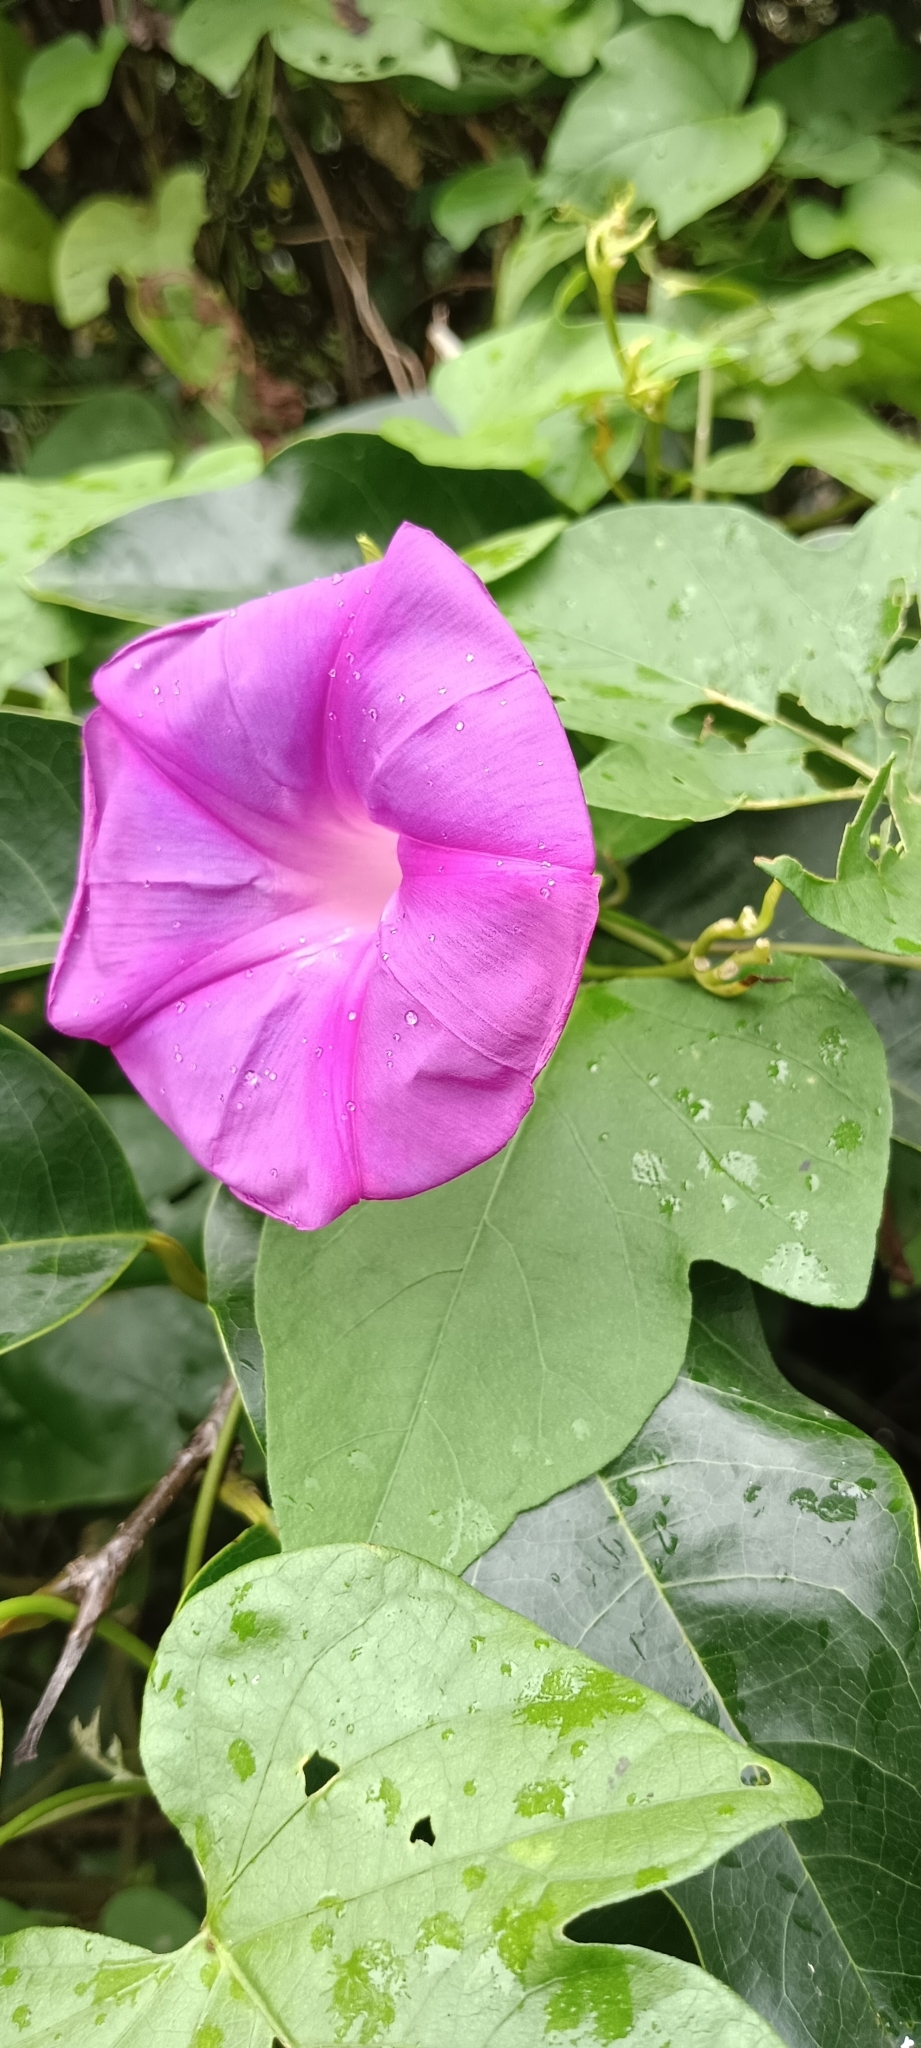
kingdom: Plantae
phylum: Tracheophyta
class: Magnoliopsida
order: Solanales
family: Convolvulaceae
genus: Ipomoea
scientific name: Ipomoea indica
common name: Blue dawnflower
